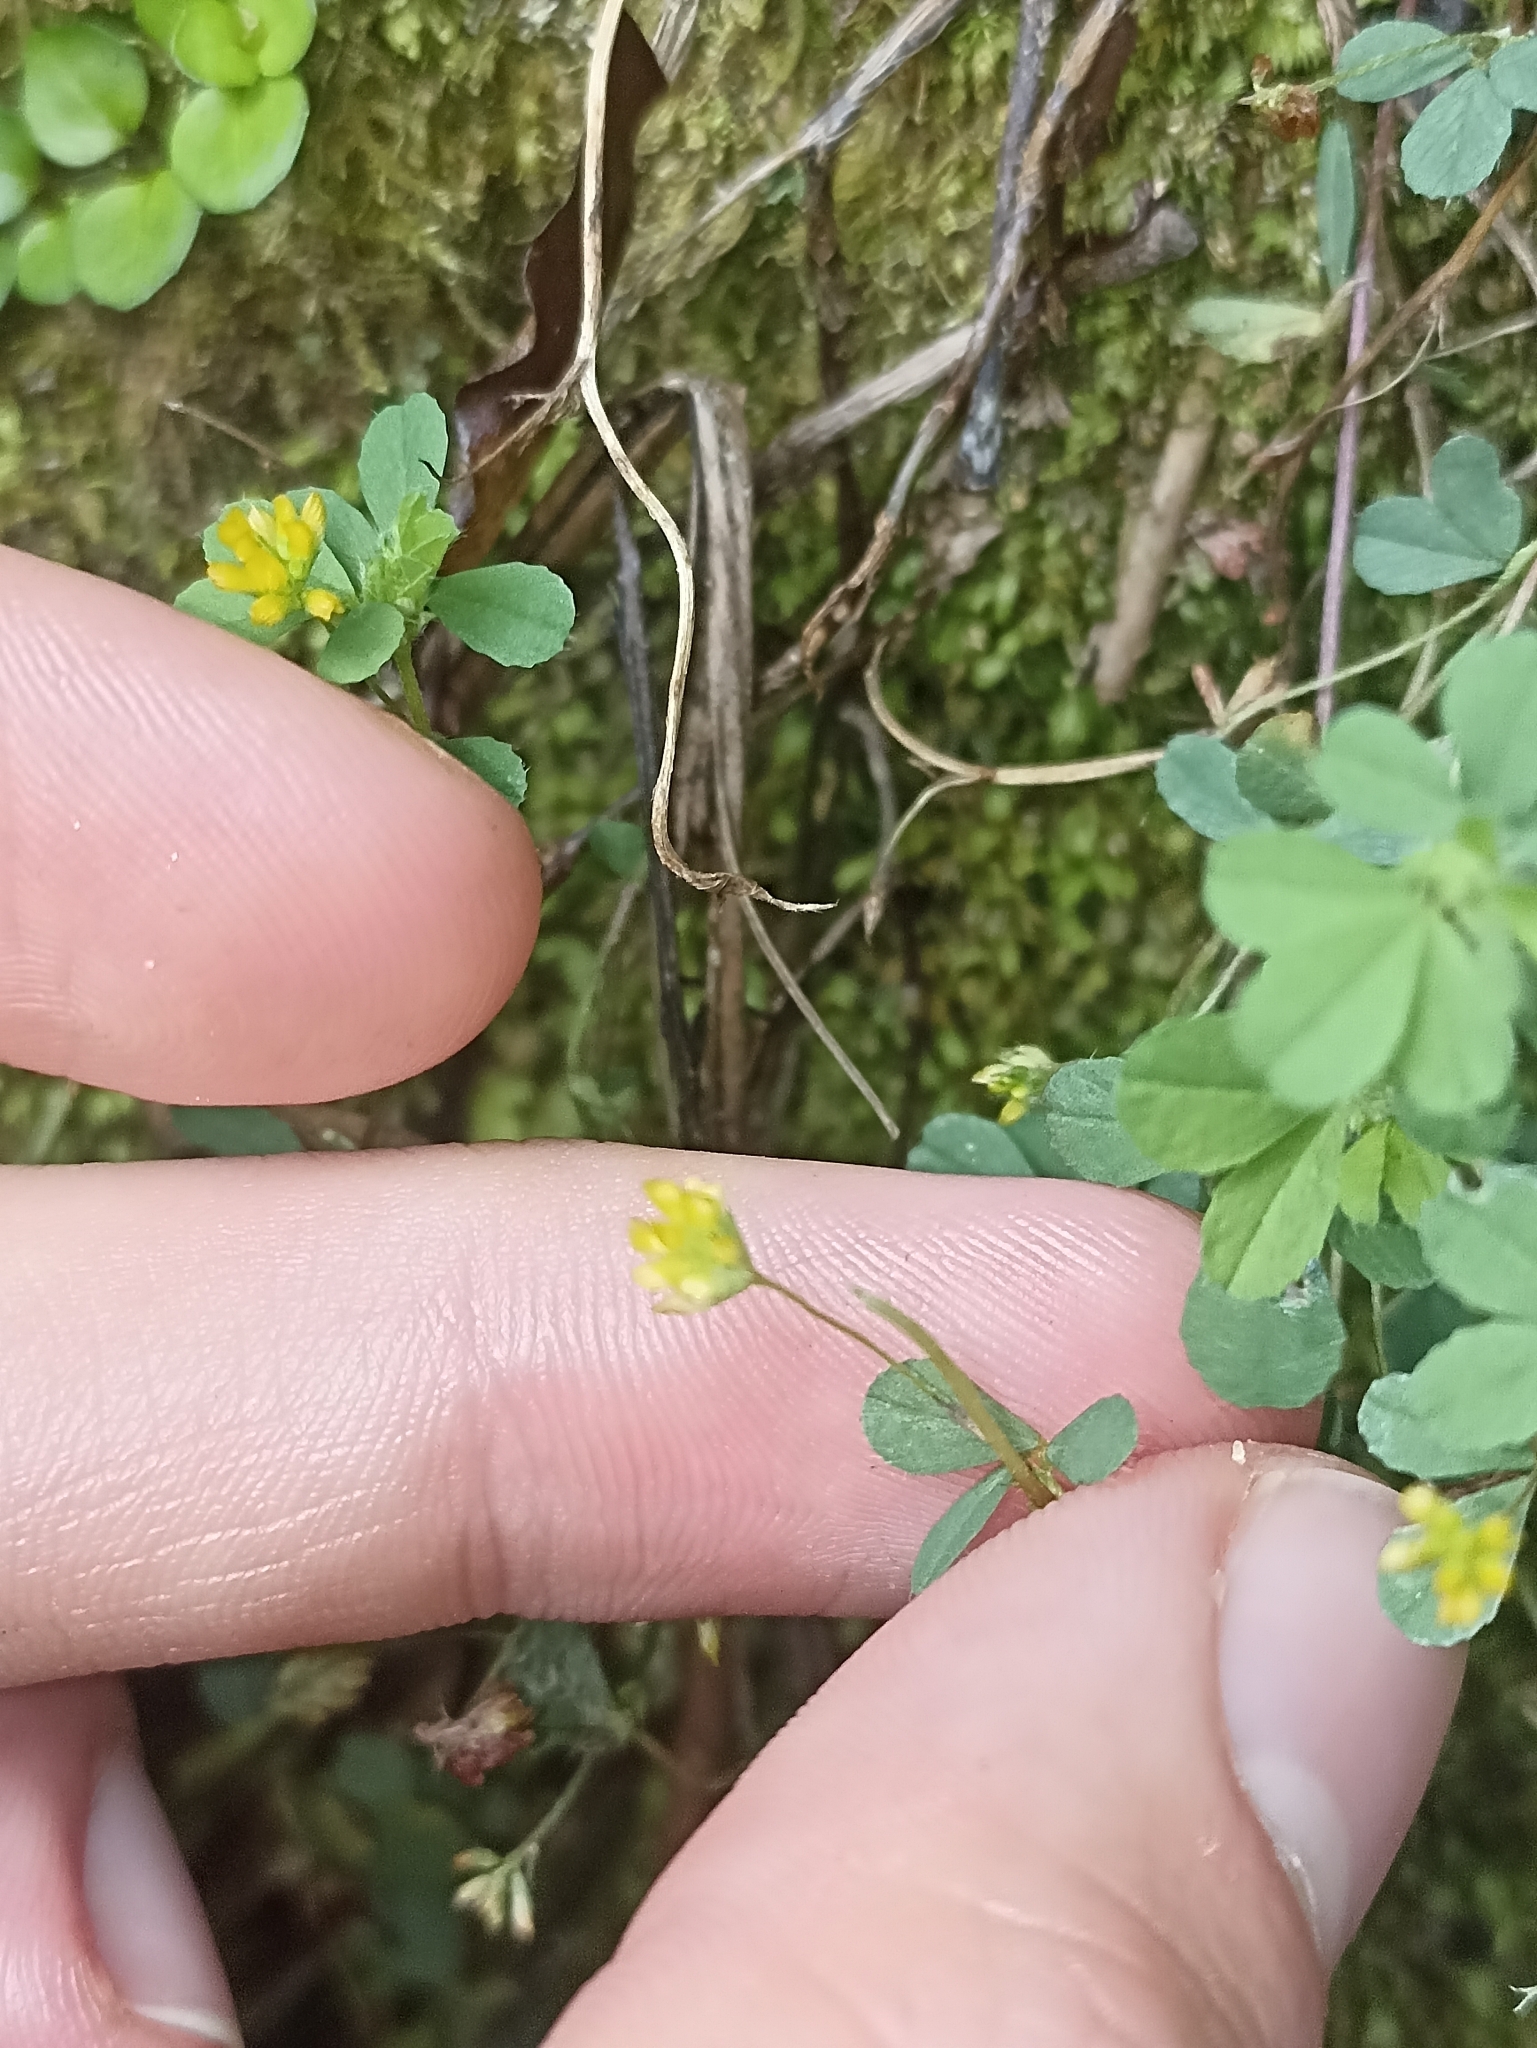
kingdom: Plantae
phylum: Tracheophyta
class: Magnoliopsida
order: Fabales
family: Fabaceae
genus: Trifolium
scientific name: Trifolium dubium
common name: Suckling clover
